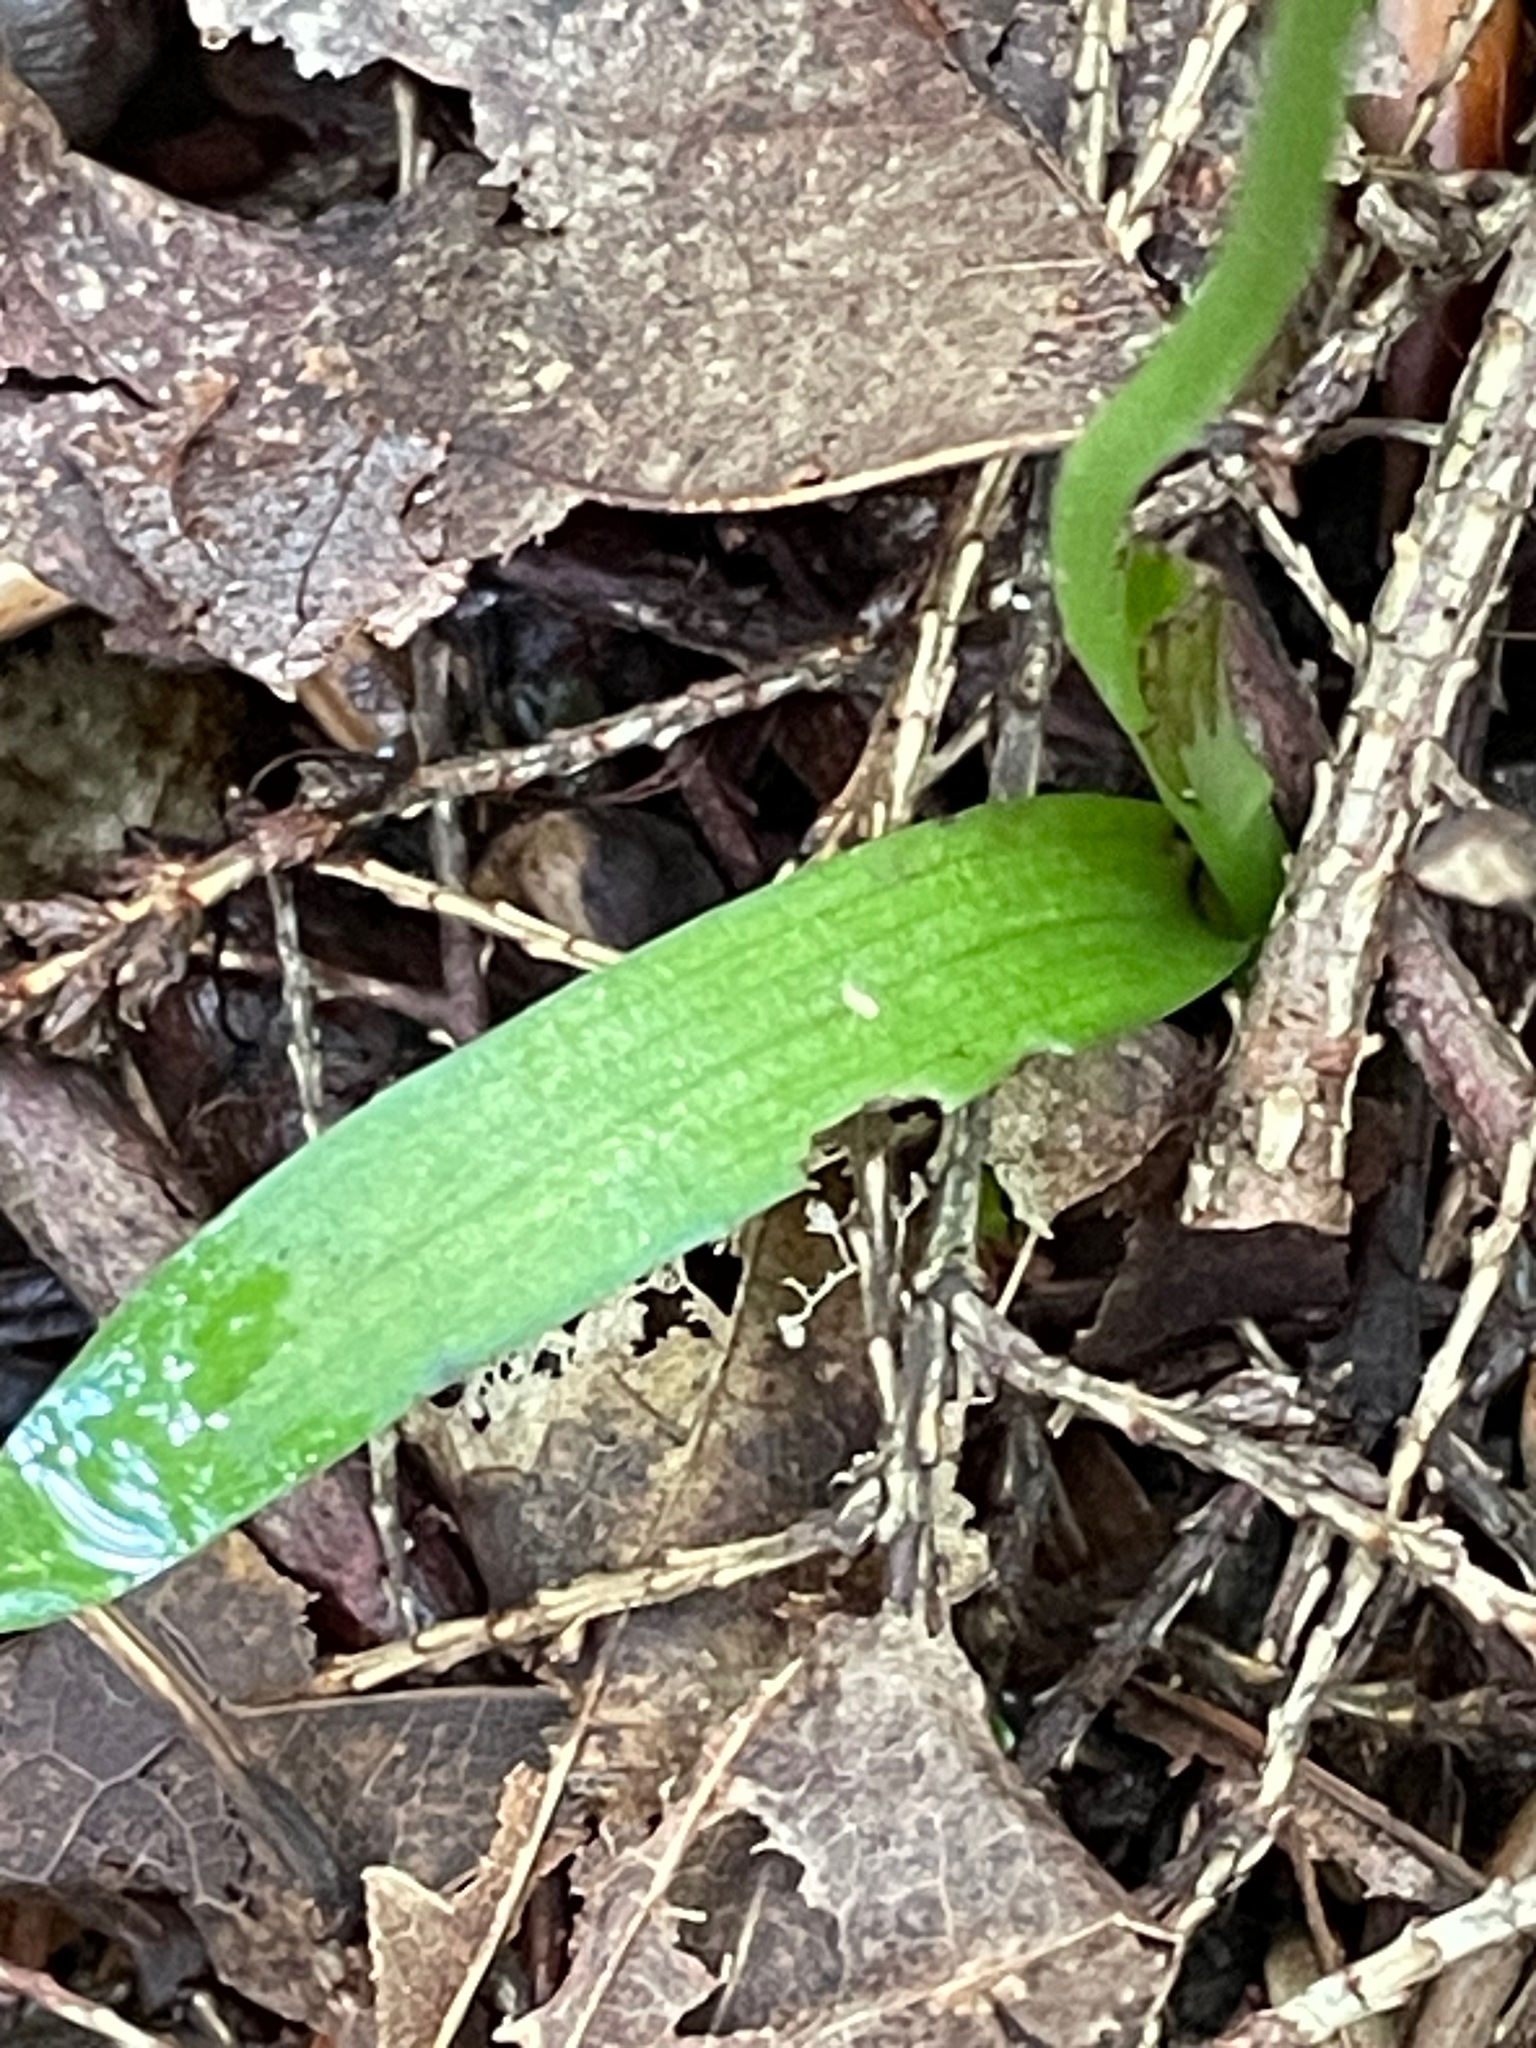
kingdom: Plantae
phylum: Tracheophyta
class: Liliopsida
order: Asparagales
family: Orchidaceae
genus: Platanthera
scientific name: Platanthera aquilonis
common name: Northern green orchid
